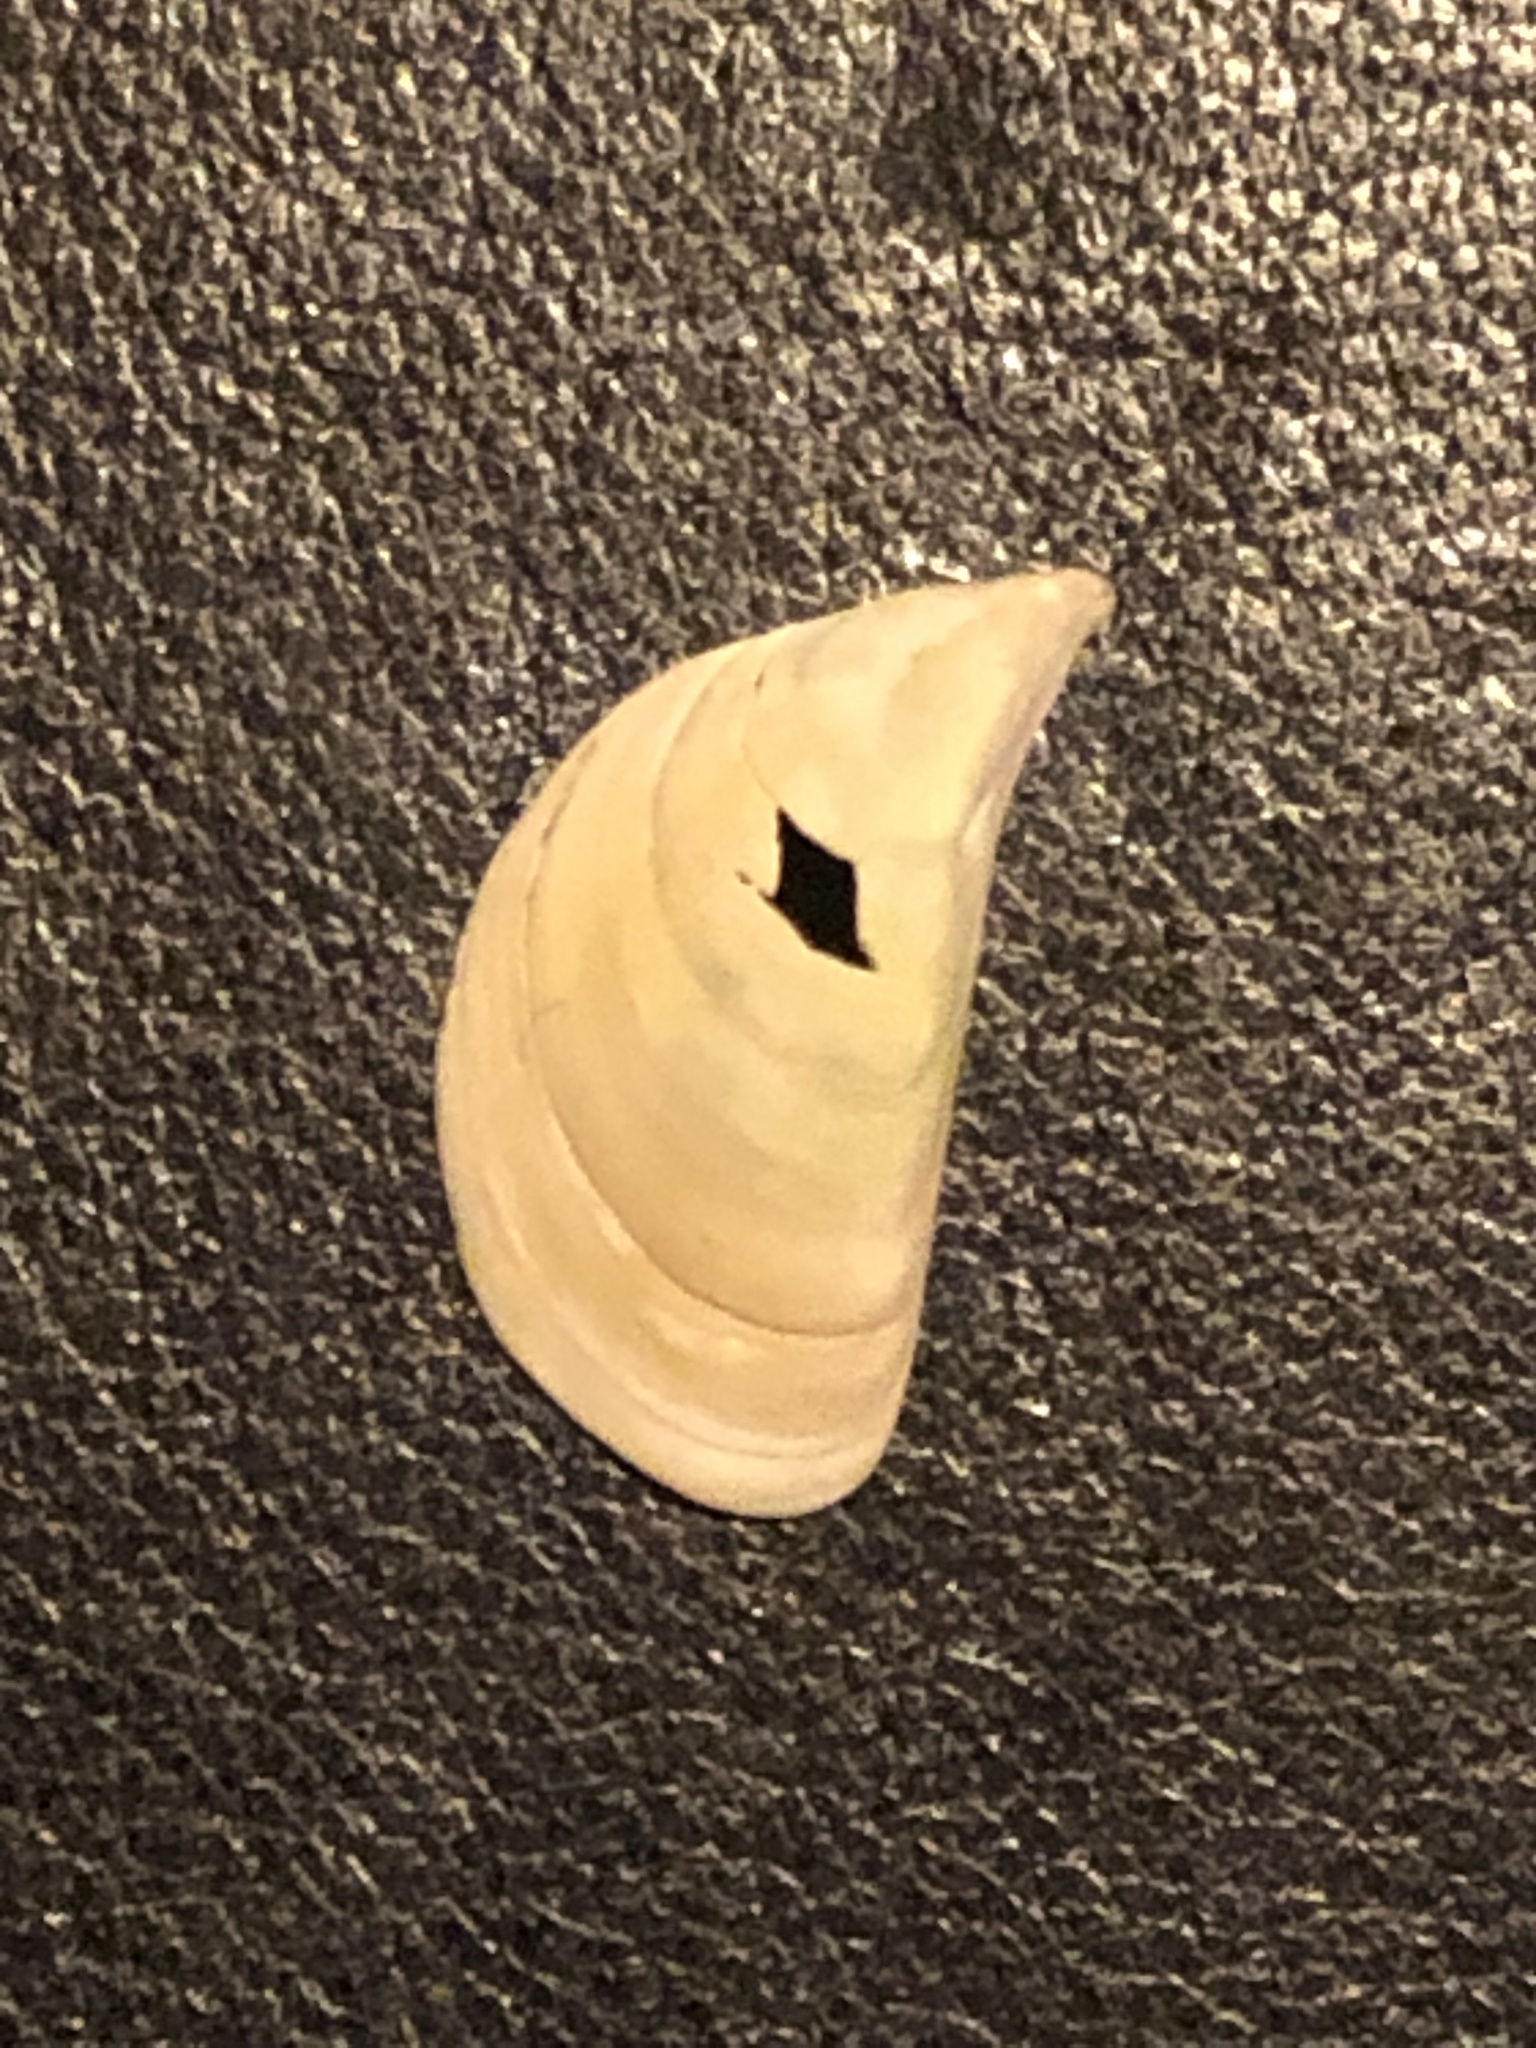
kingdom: Animalia
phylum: Mollusca
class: Bivalvia
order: Myida
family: Dreissenidae
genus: Dreissena
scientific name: Dreissena polymorpha
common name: Zebra mussel
